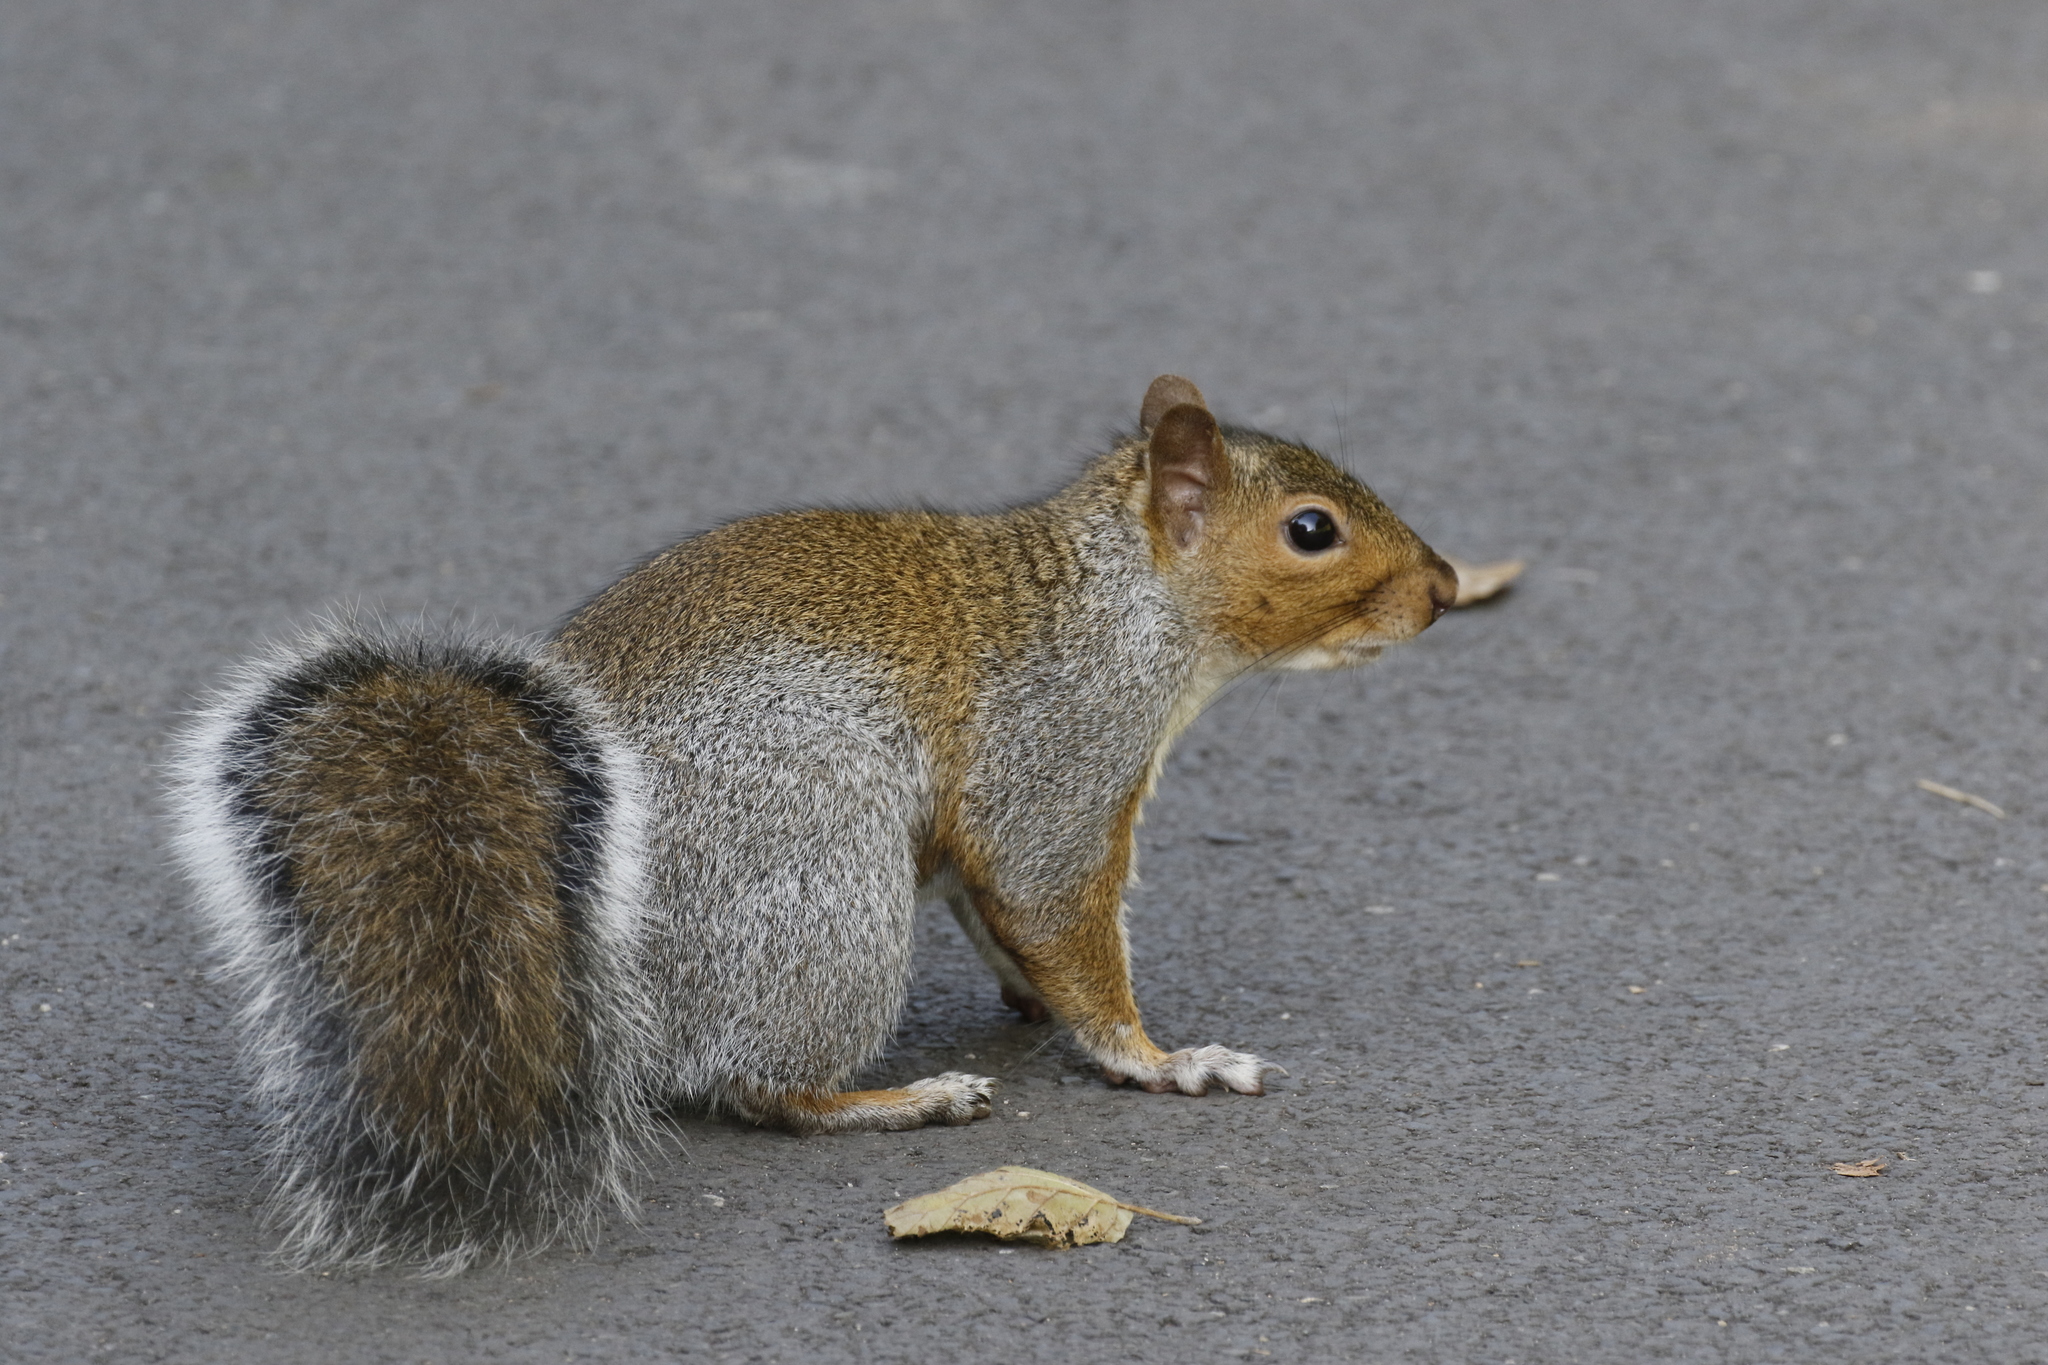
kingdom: Animalia
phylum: Chordata
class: Mammalia
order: Rodentia
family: Sciuridae
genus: Sciurus
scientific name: Sciurus carolinensis
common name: Eastern gray squirrel
